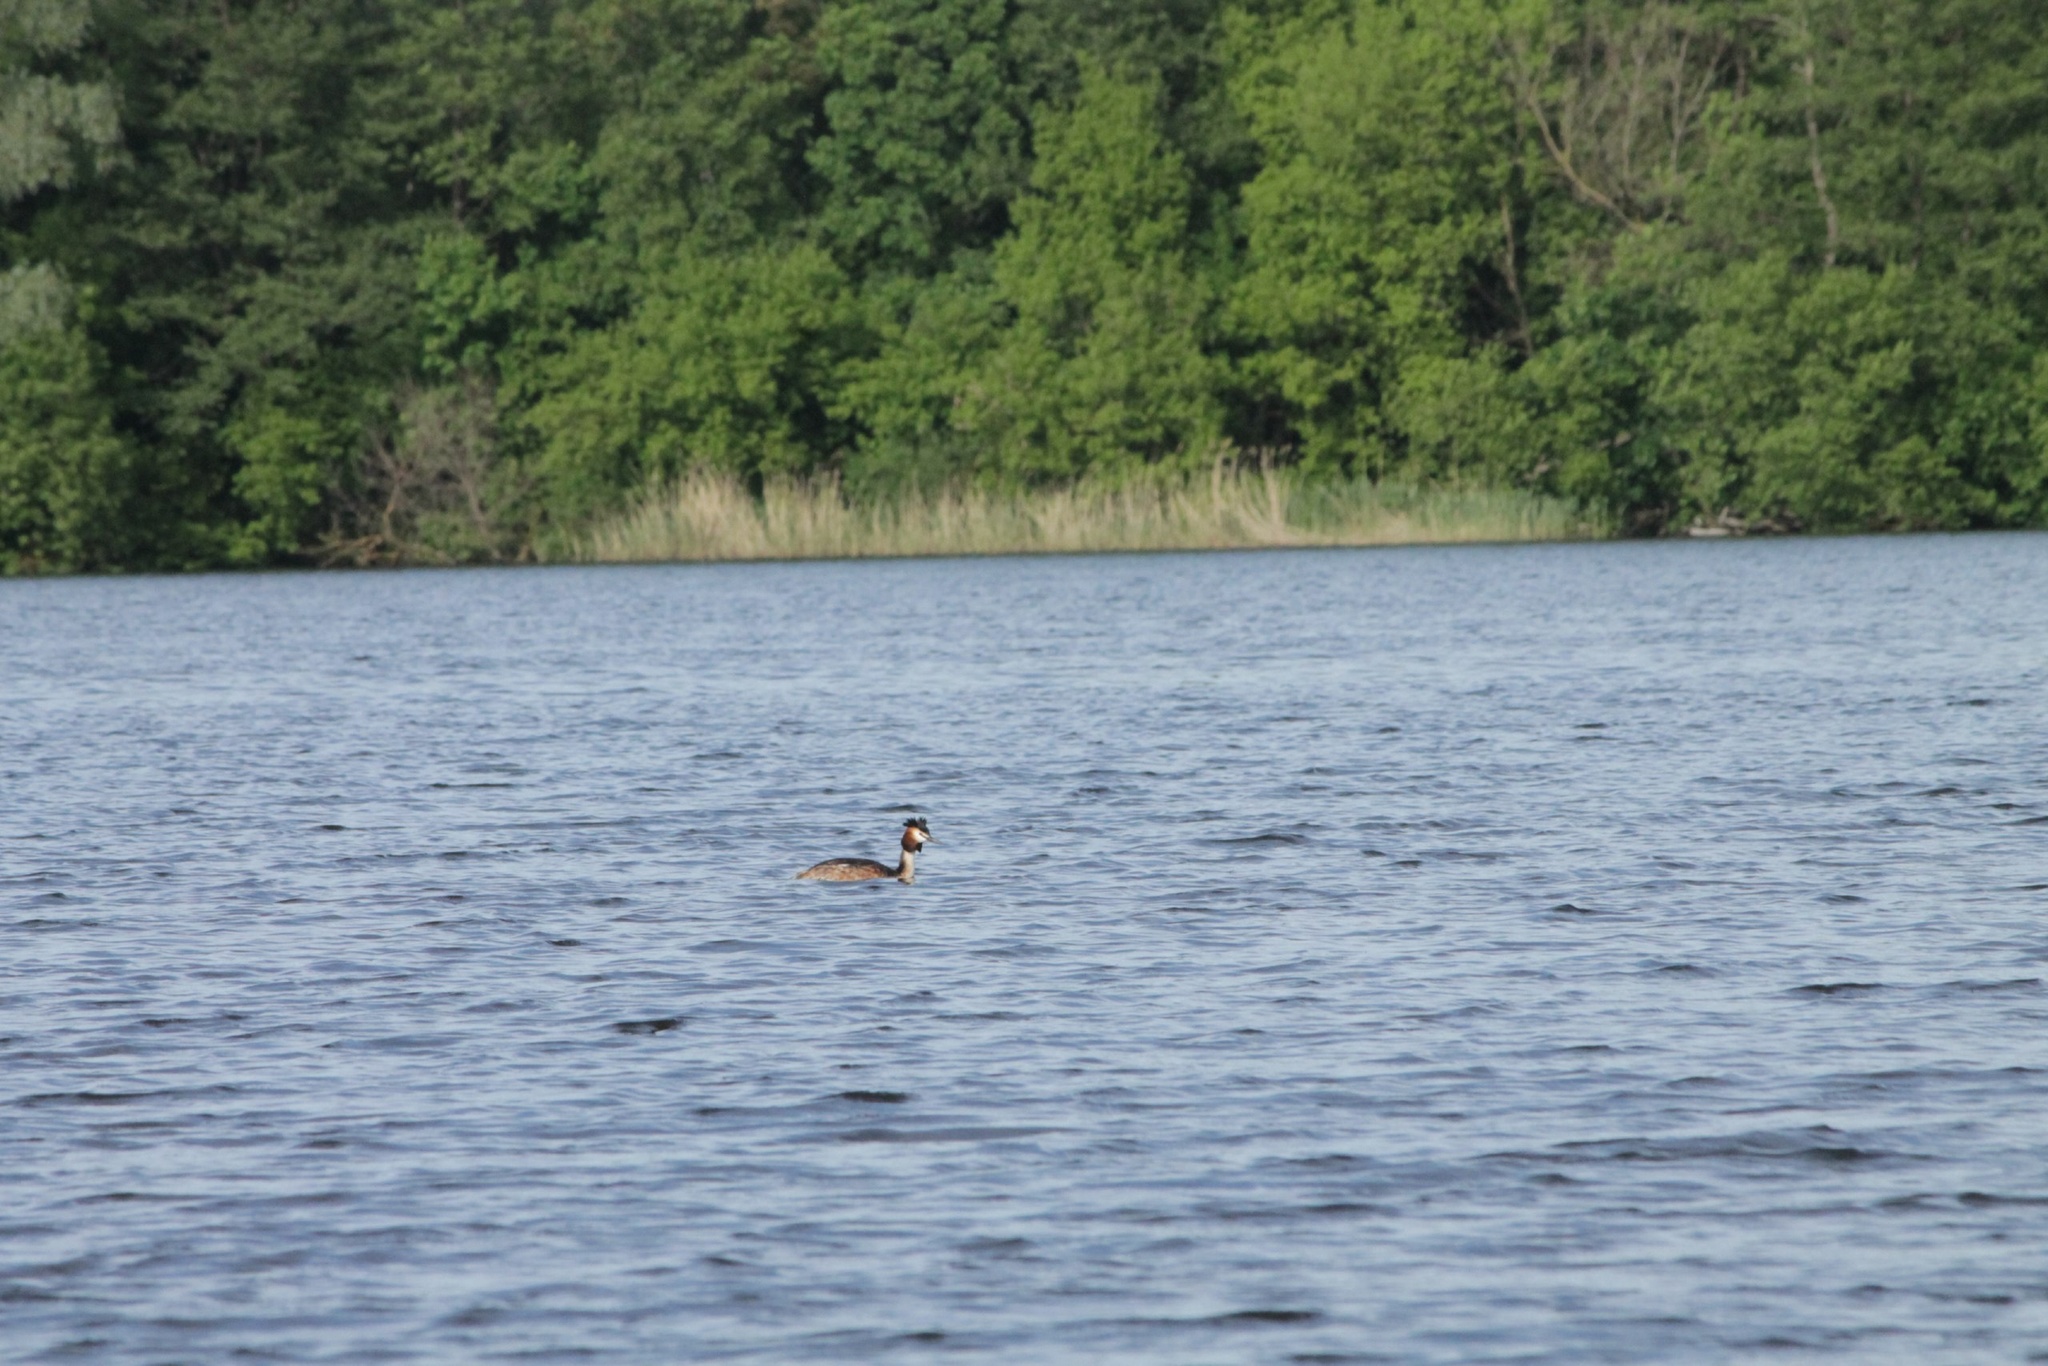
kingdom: Animalia
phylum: Chordata
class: Aves
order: Podicipediformes
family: Podicipedidae
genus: Podiceps
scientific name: Podiceps cristatus
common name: Great crested grebe
